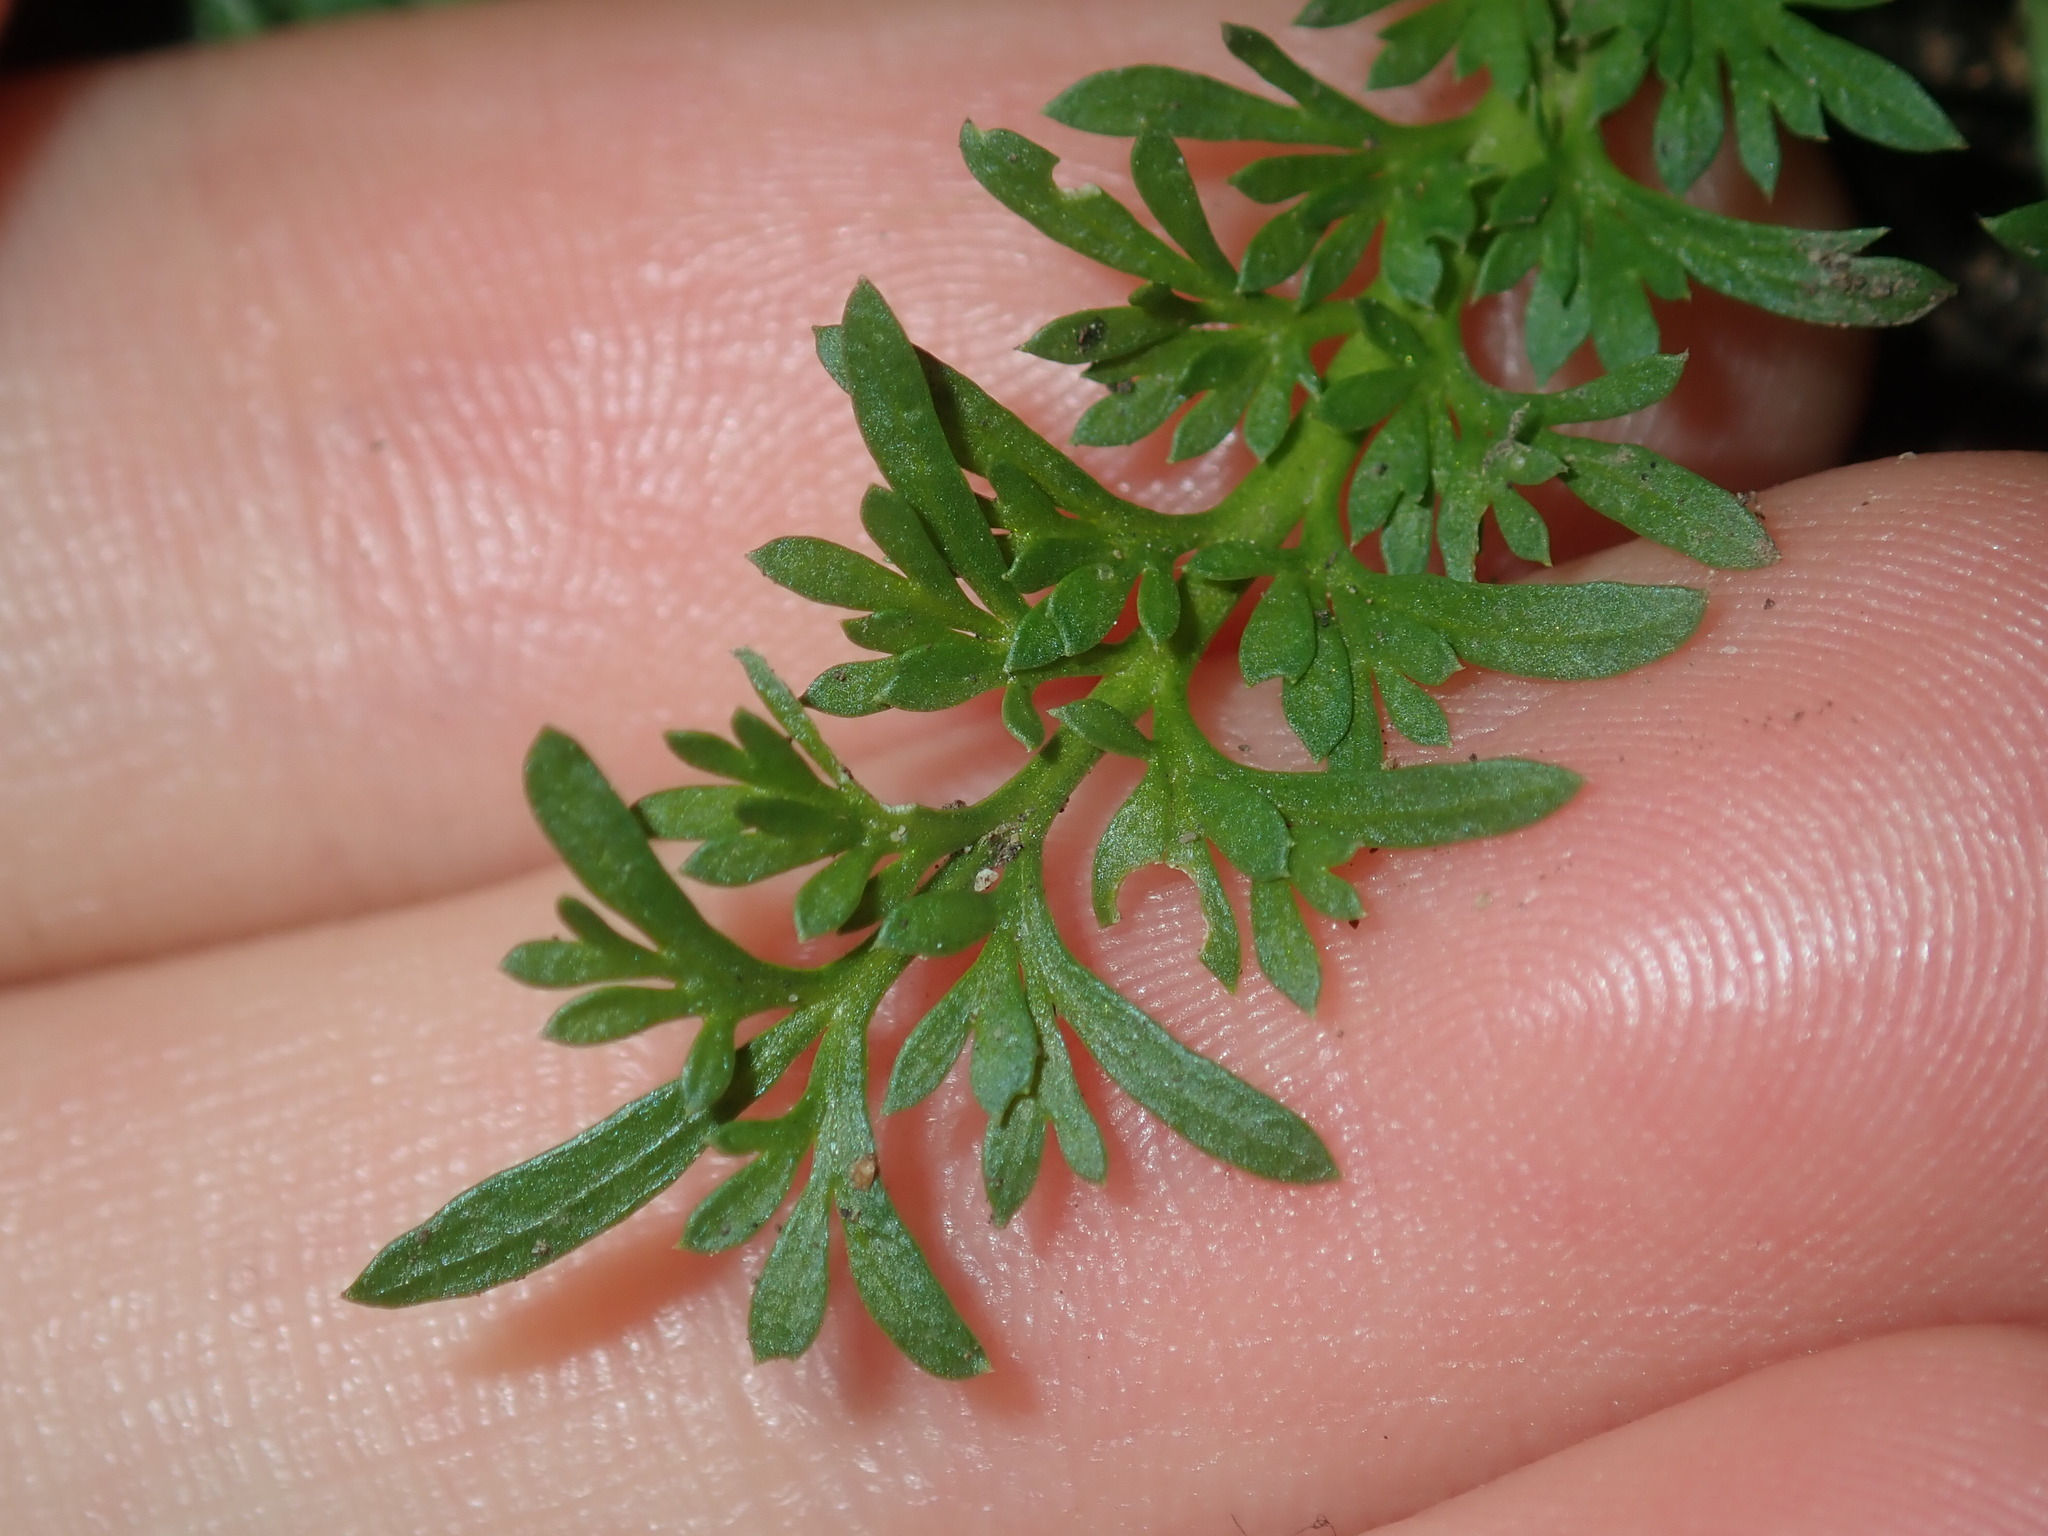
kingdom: Plantae
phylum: Tracheophyta
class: Magnoliopsida
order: Brassicales
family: Brassicaceae
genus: Lepidium
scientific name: Lepidium didymum
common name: Lesser swinecress
